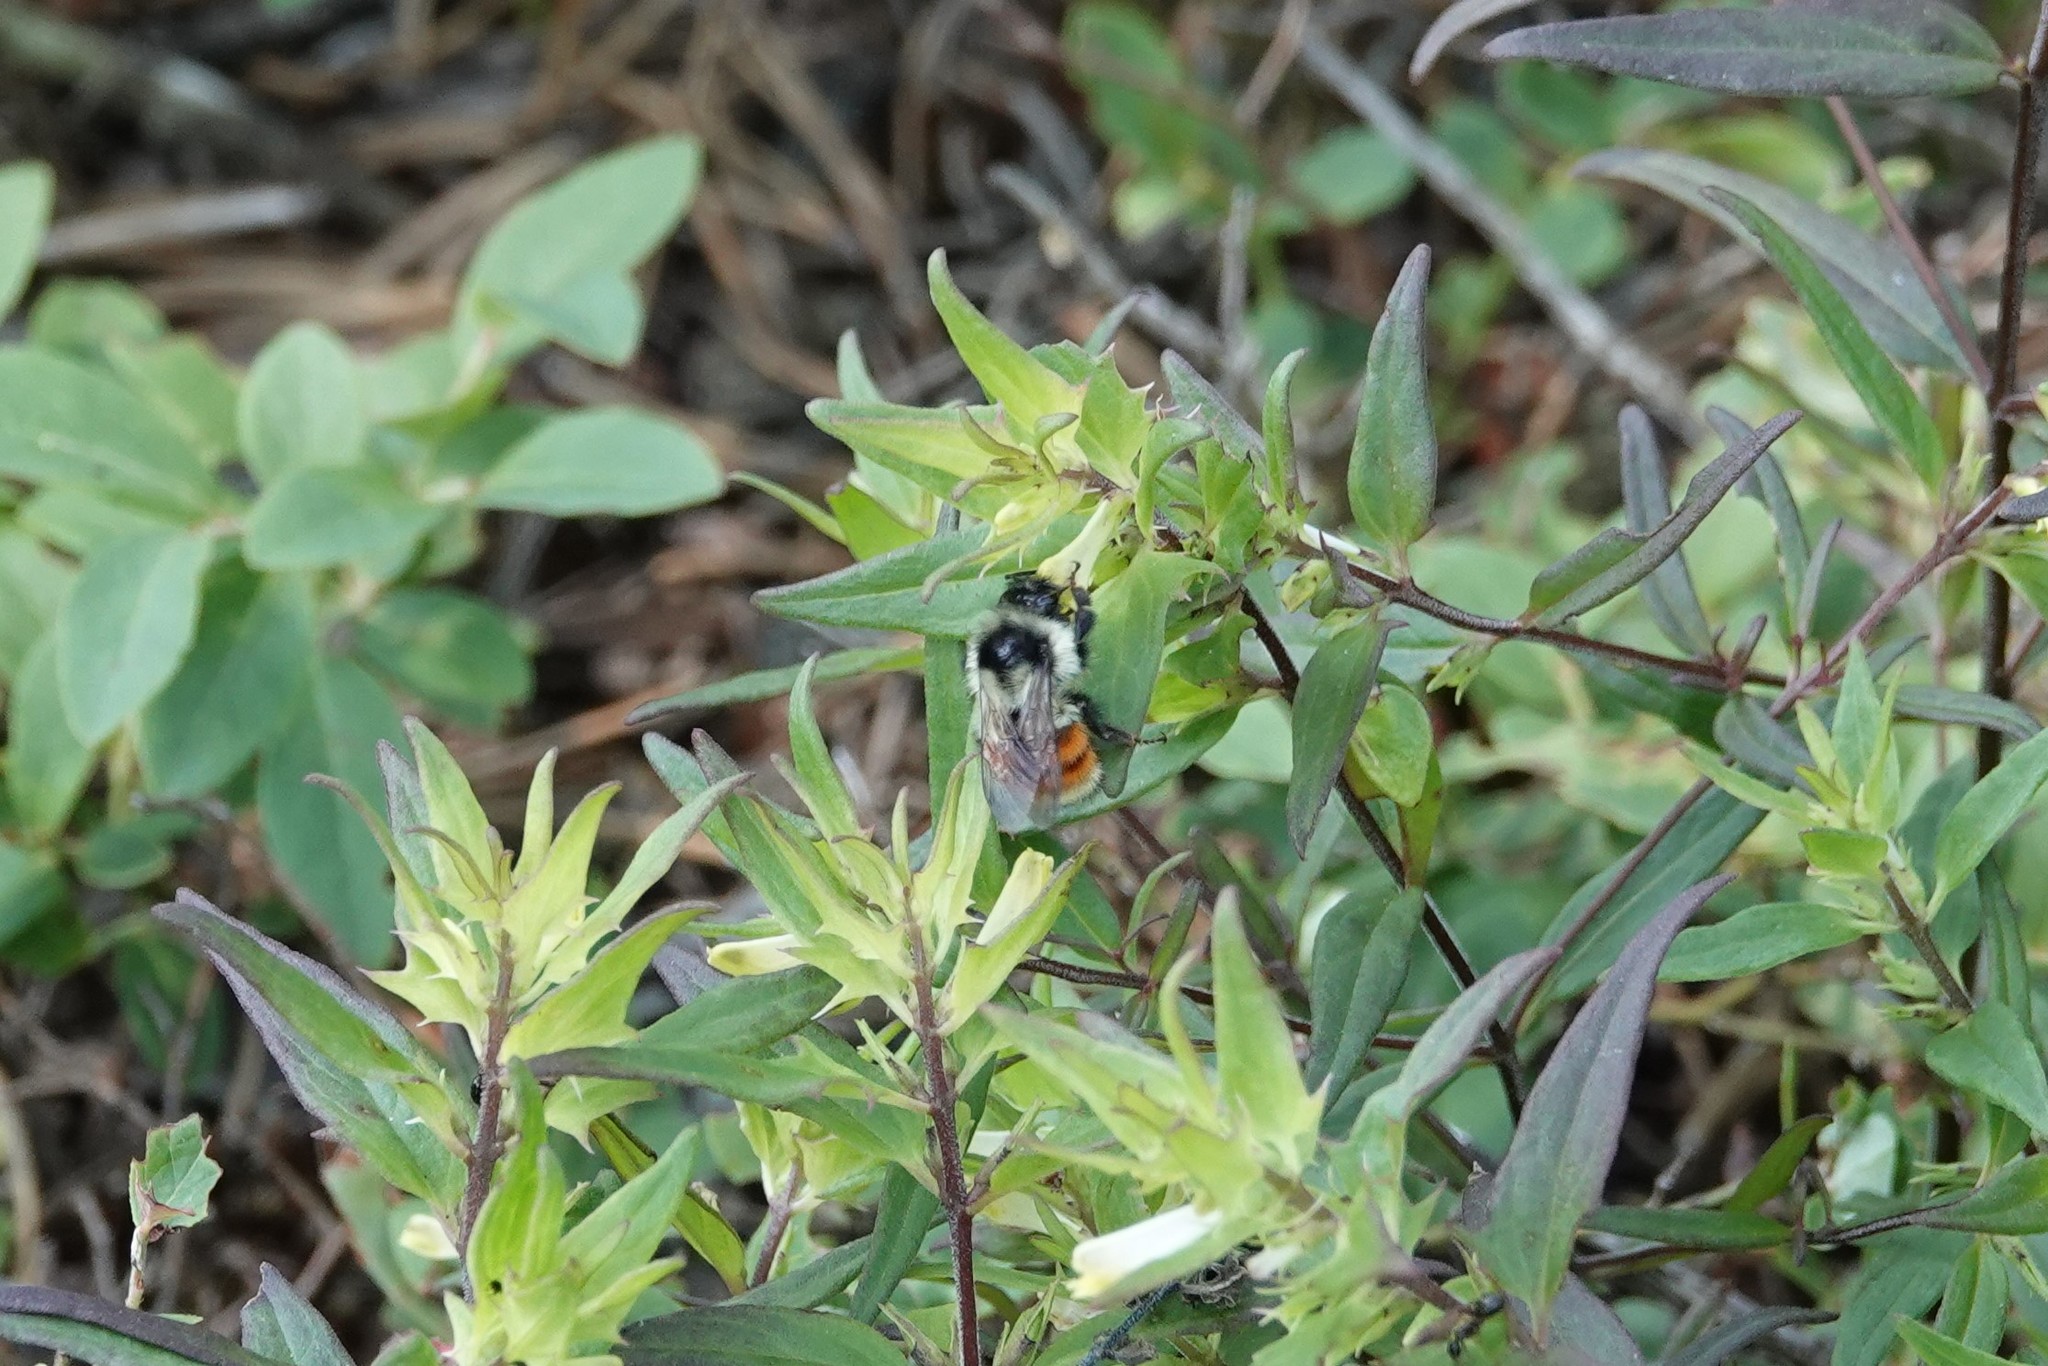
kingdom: Animalia
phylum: Arthropoda
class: Insecta
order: Hymenoptera
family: Apidae
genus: Bombus
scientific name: Bombus ternarius
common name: Tri-colored bumble bee
